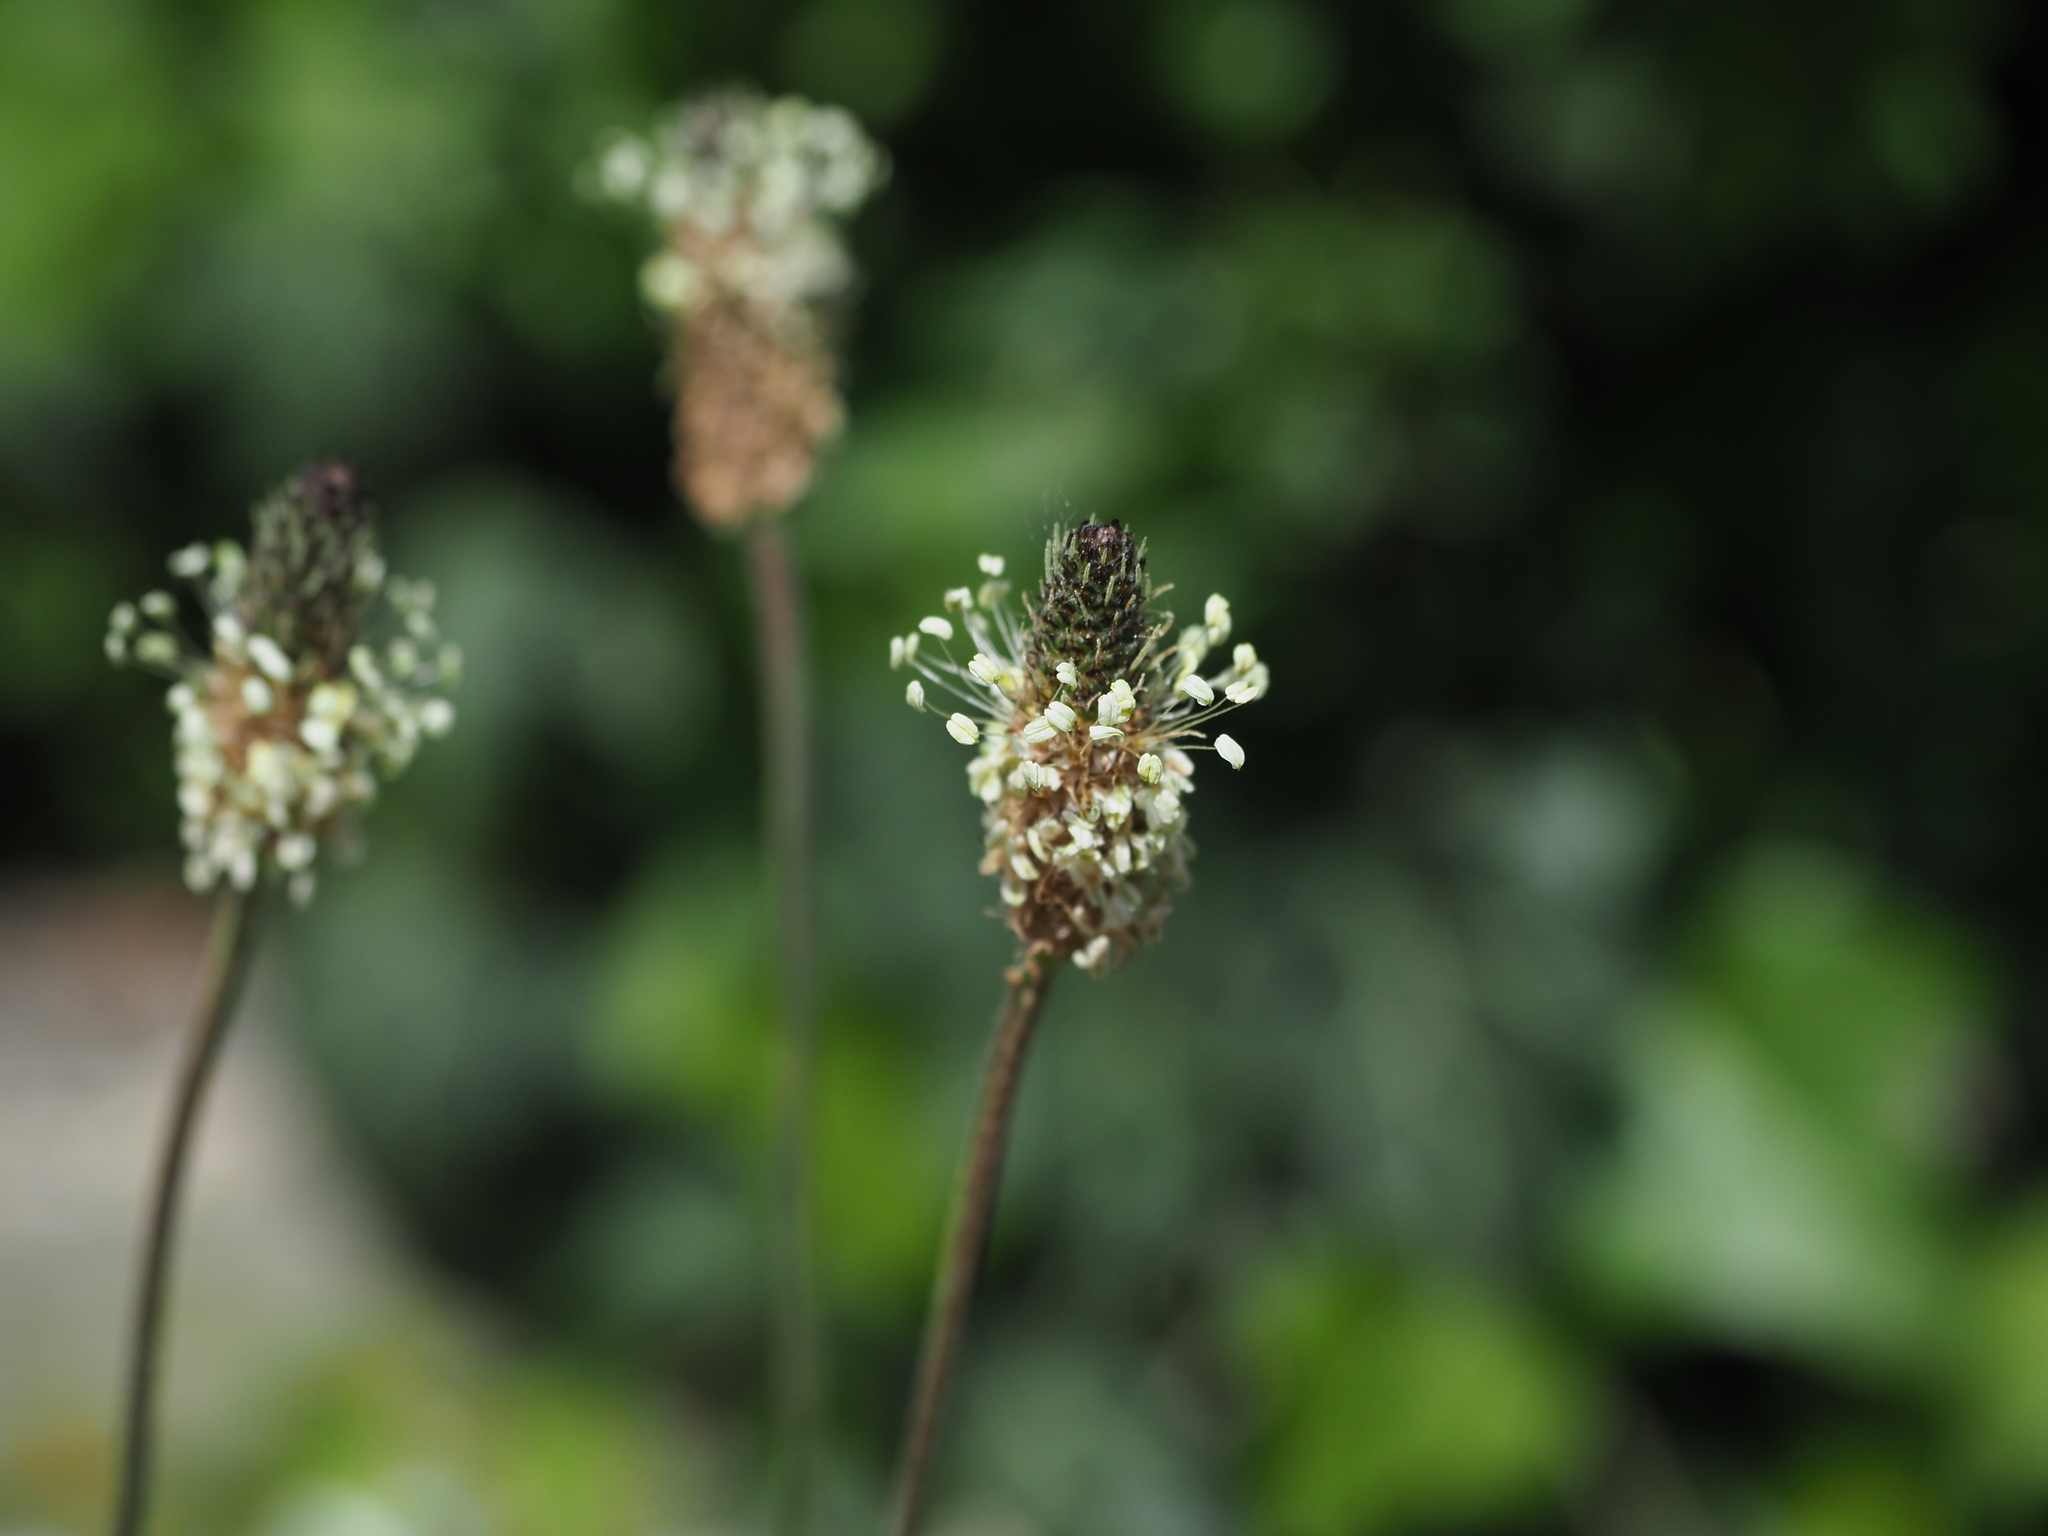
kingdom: Plantae
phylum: Tracheophyta
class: Magnoliopsida
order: Lamiales
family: Plantaginaceae
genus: Plantago
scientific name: Plantago lanceolata
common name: Ribwort plantain
